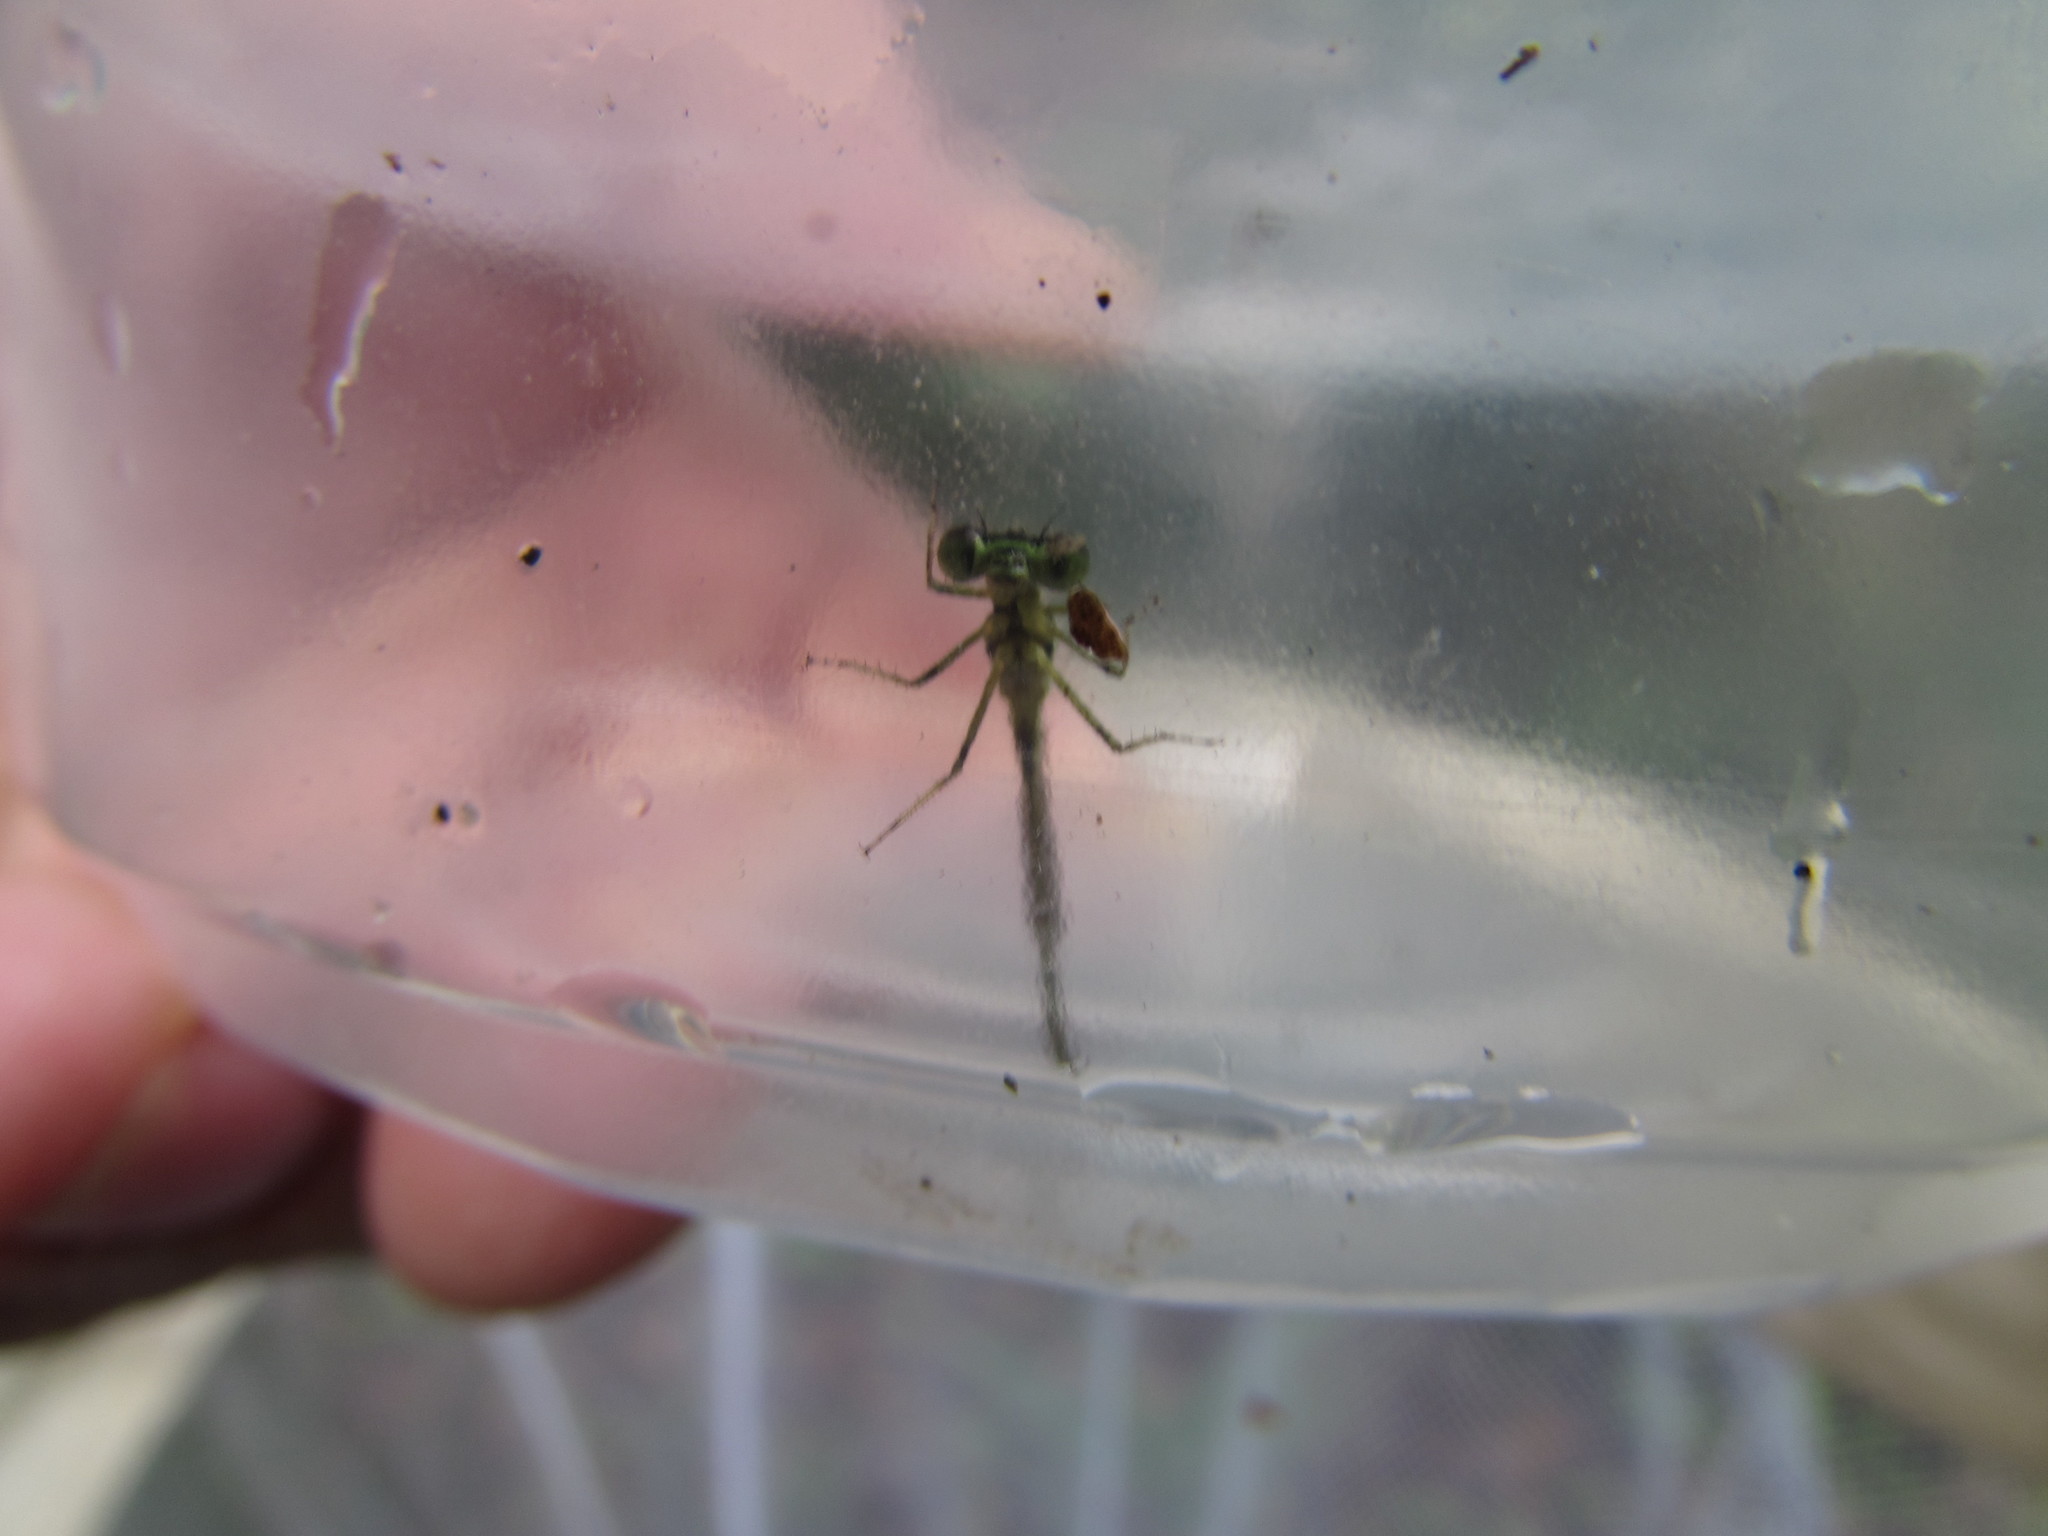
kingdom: Animalia
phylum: Arthropoda
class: Insecta
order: Odonata
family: Coenagrionidae
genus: Ischnura
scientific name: Ischnura posita
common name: Fragile forktail
